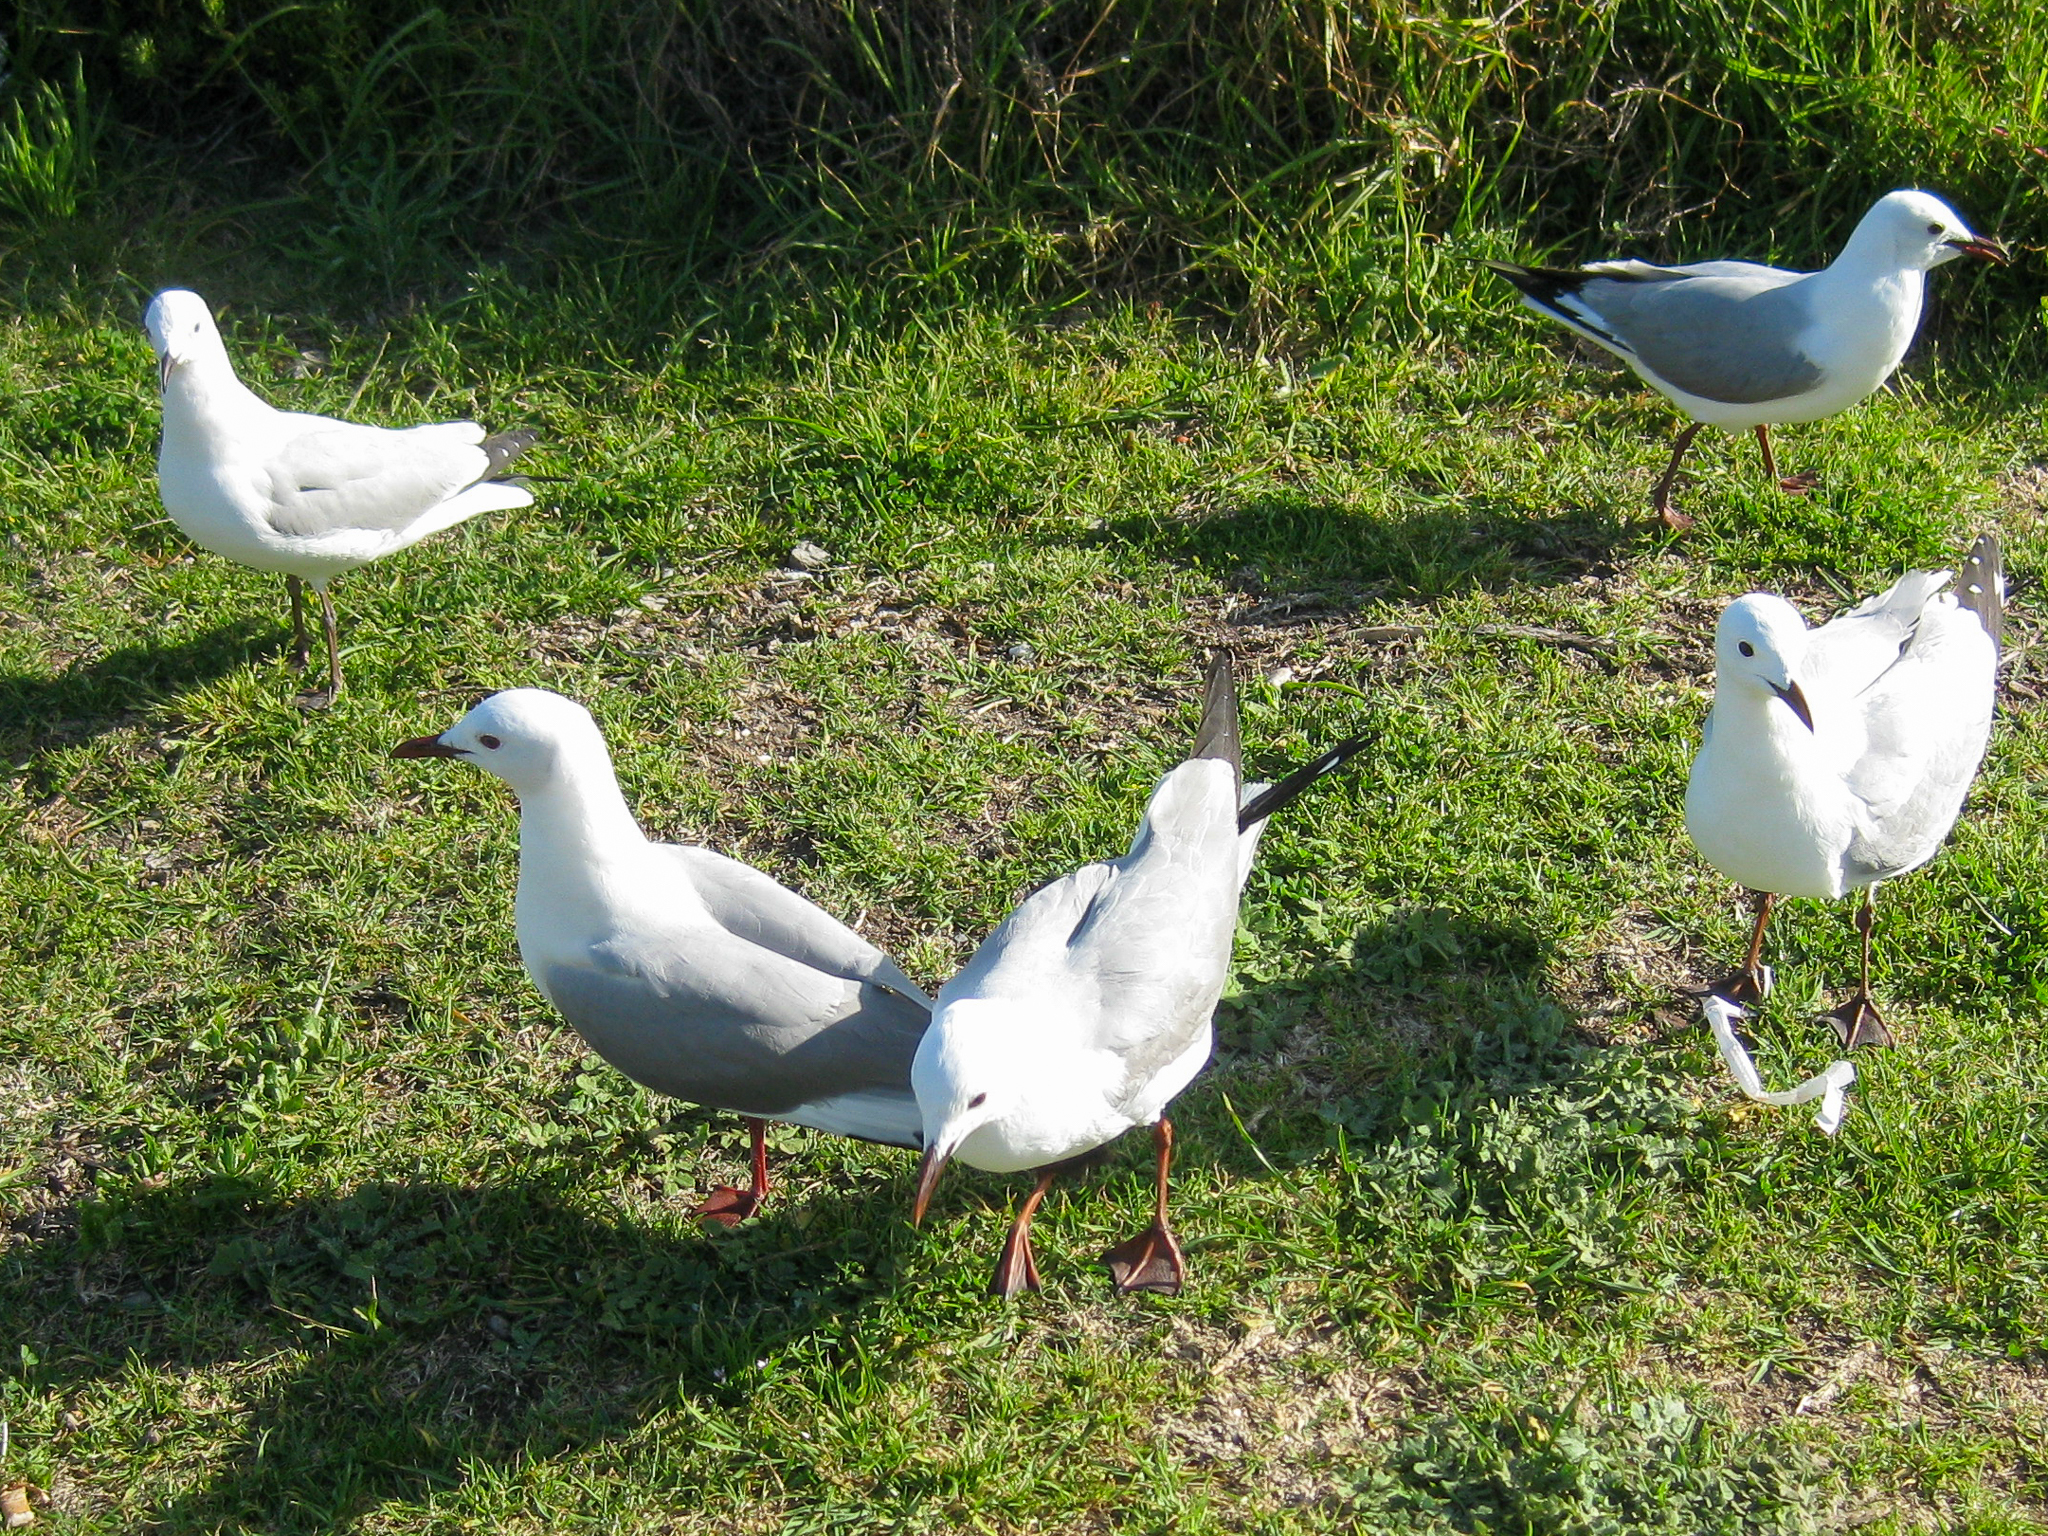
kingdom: Animalia
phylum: Chordata
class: Aves
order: Charadriiformes
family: Laridae
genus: Chroicocephalus
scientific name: Chroicocephalus hartlaubii
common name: Hartlaub's gull
